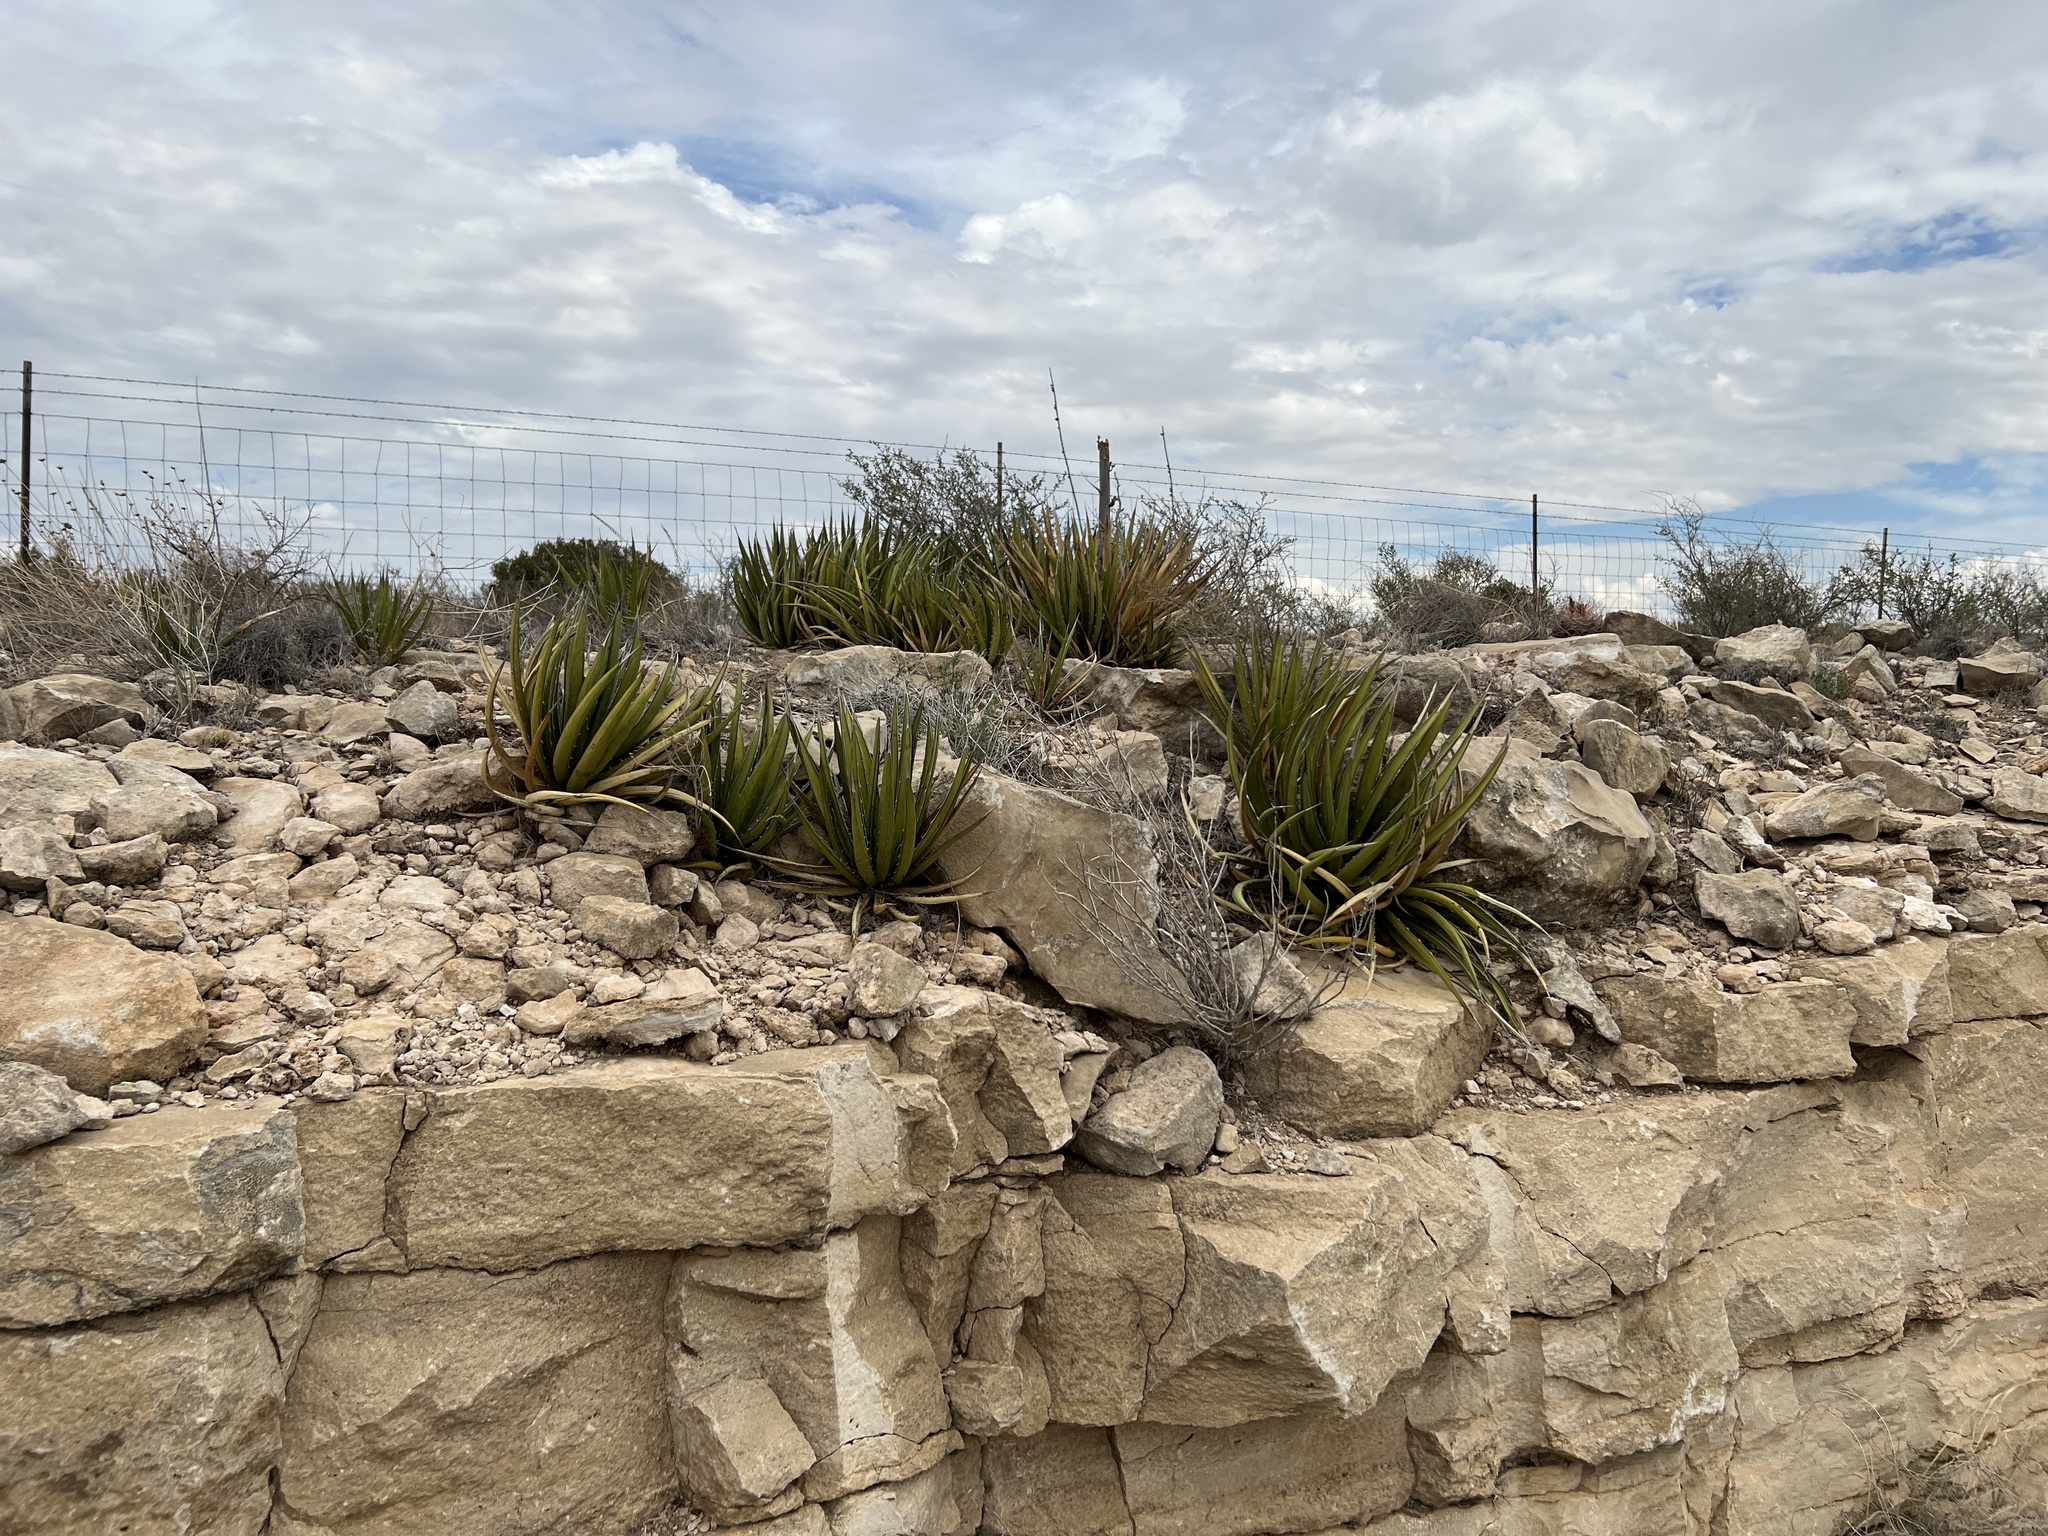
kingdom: Plantae
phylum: Tracheophyta
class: Liliopsida
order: Asparagales
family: Asparagaceae
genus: Agave
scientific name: Agave lechuguilla
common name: Lecheguilla agave
